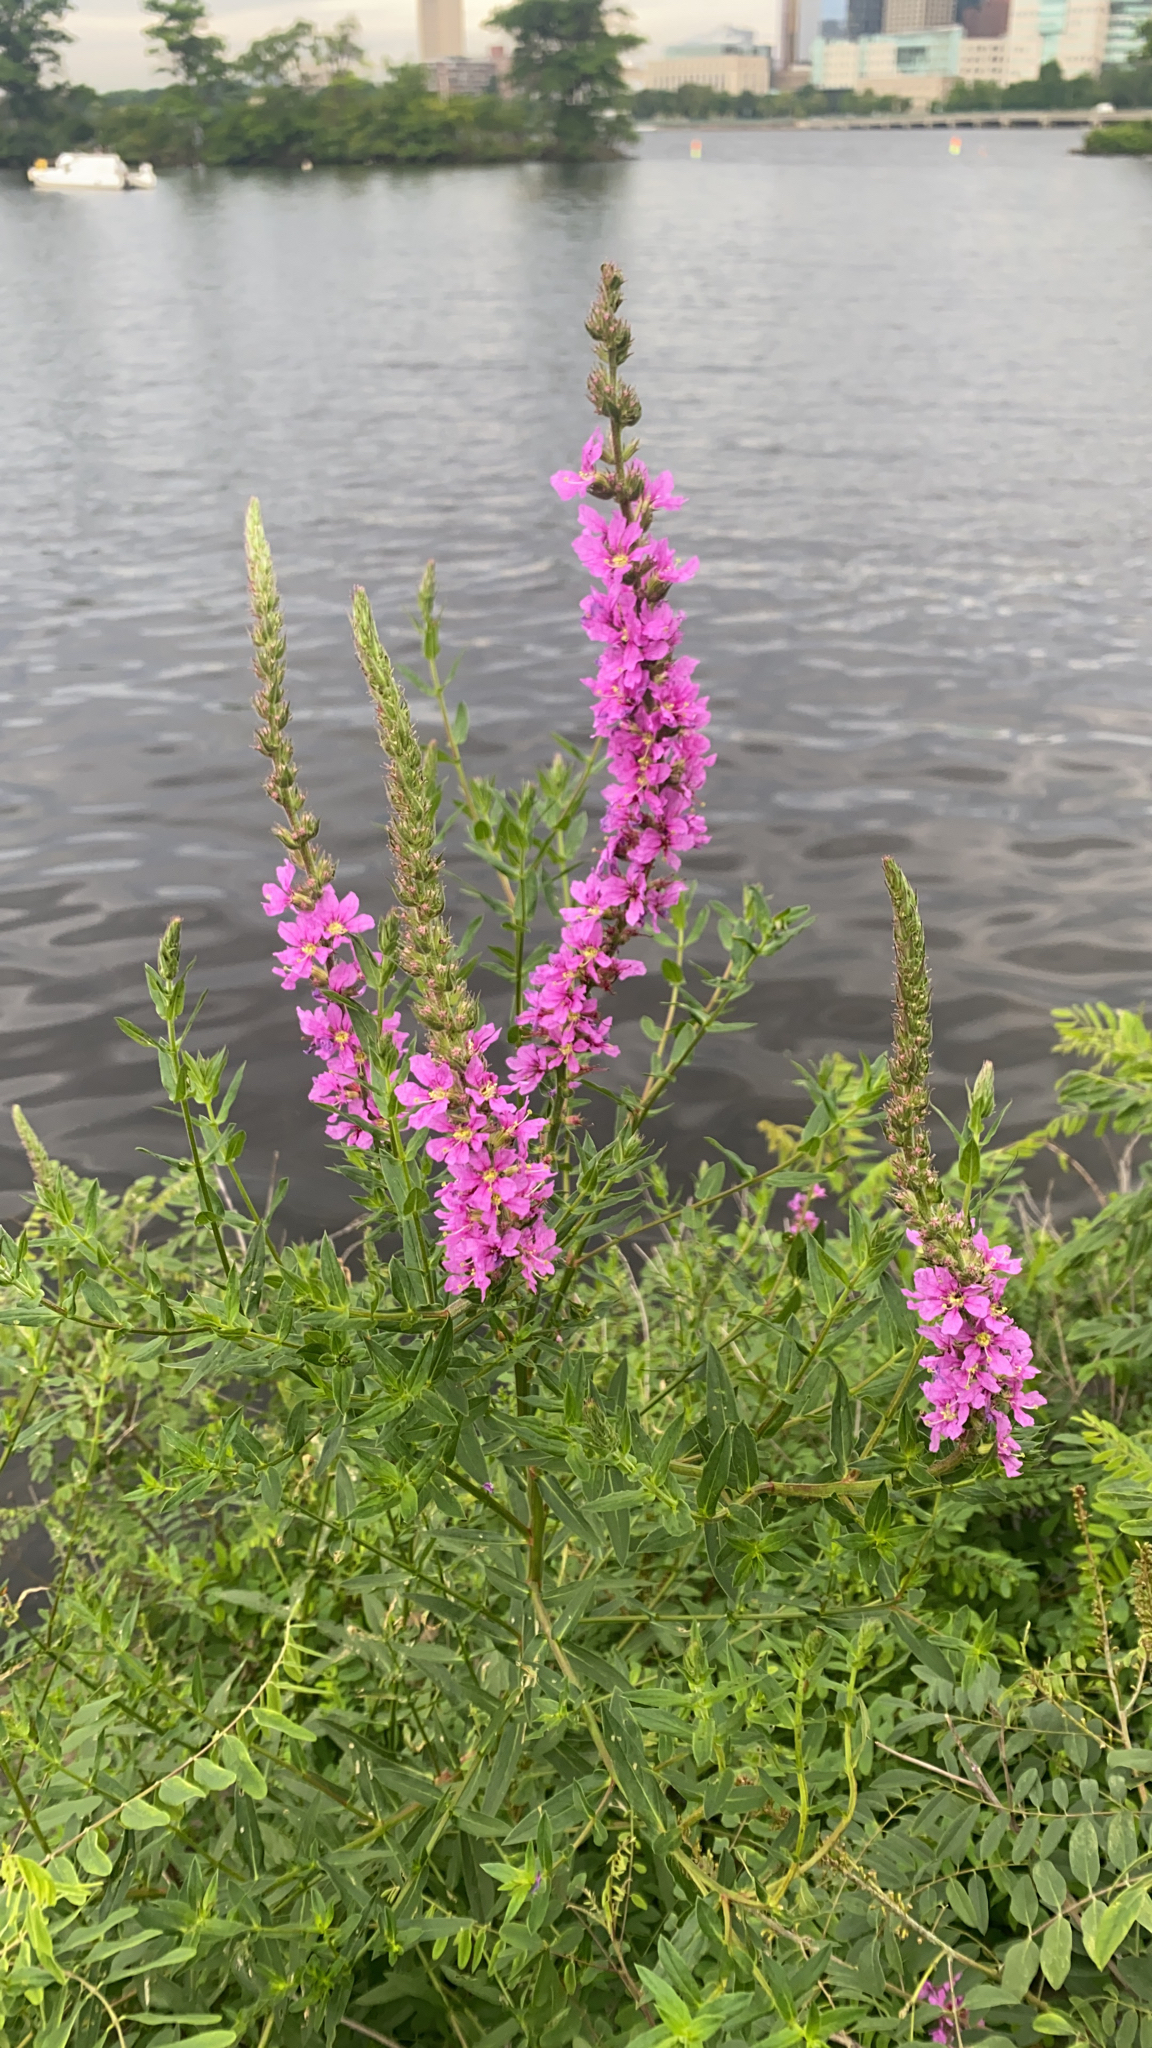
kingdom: Plantae
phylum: Tracheophyta
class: Magnoliopsida
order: Myrtales
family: Lythraceae
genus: Lythrum
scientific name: Lythrum salicaria
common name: Purple loosestrife
